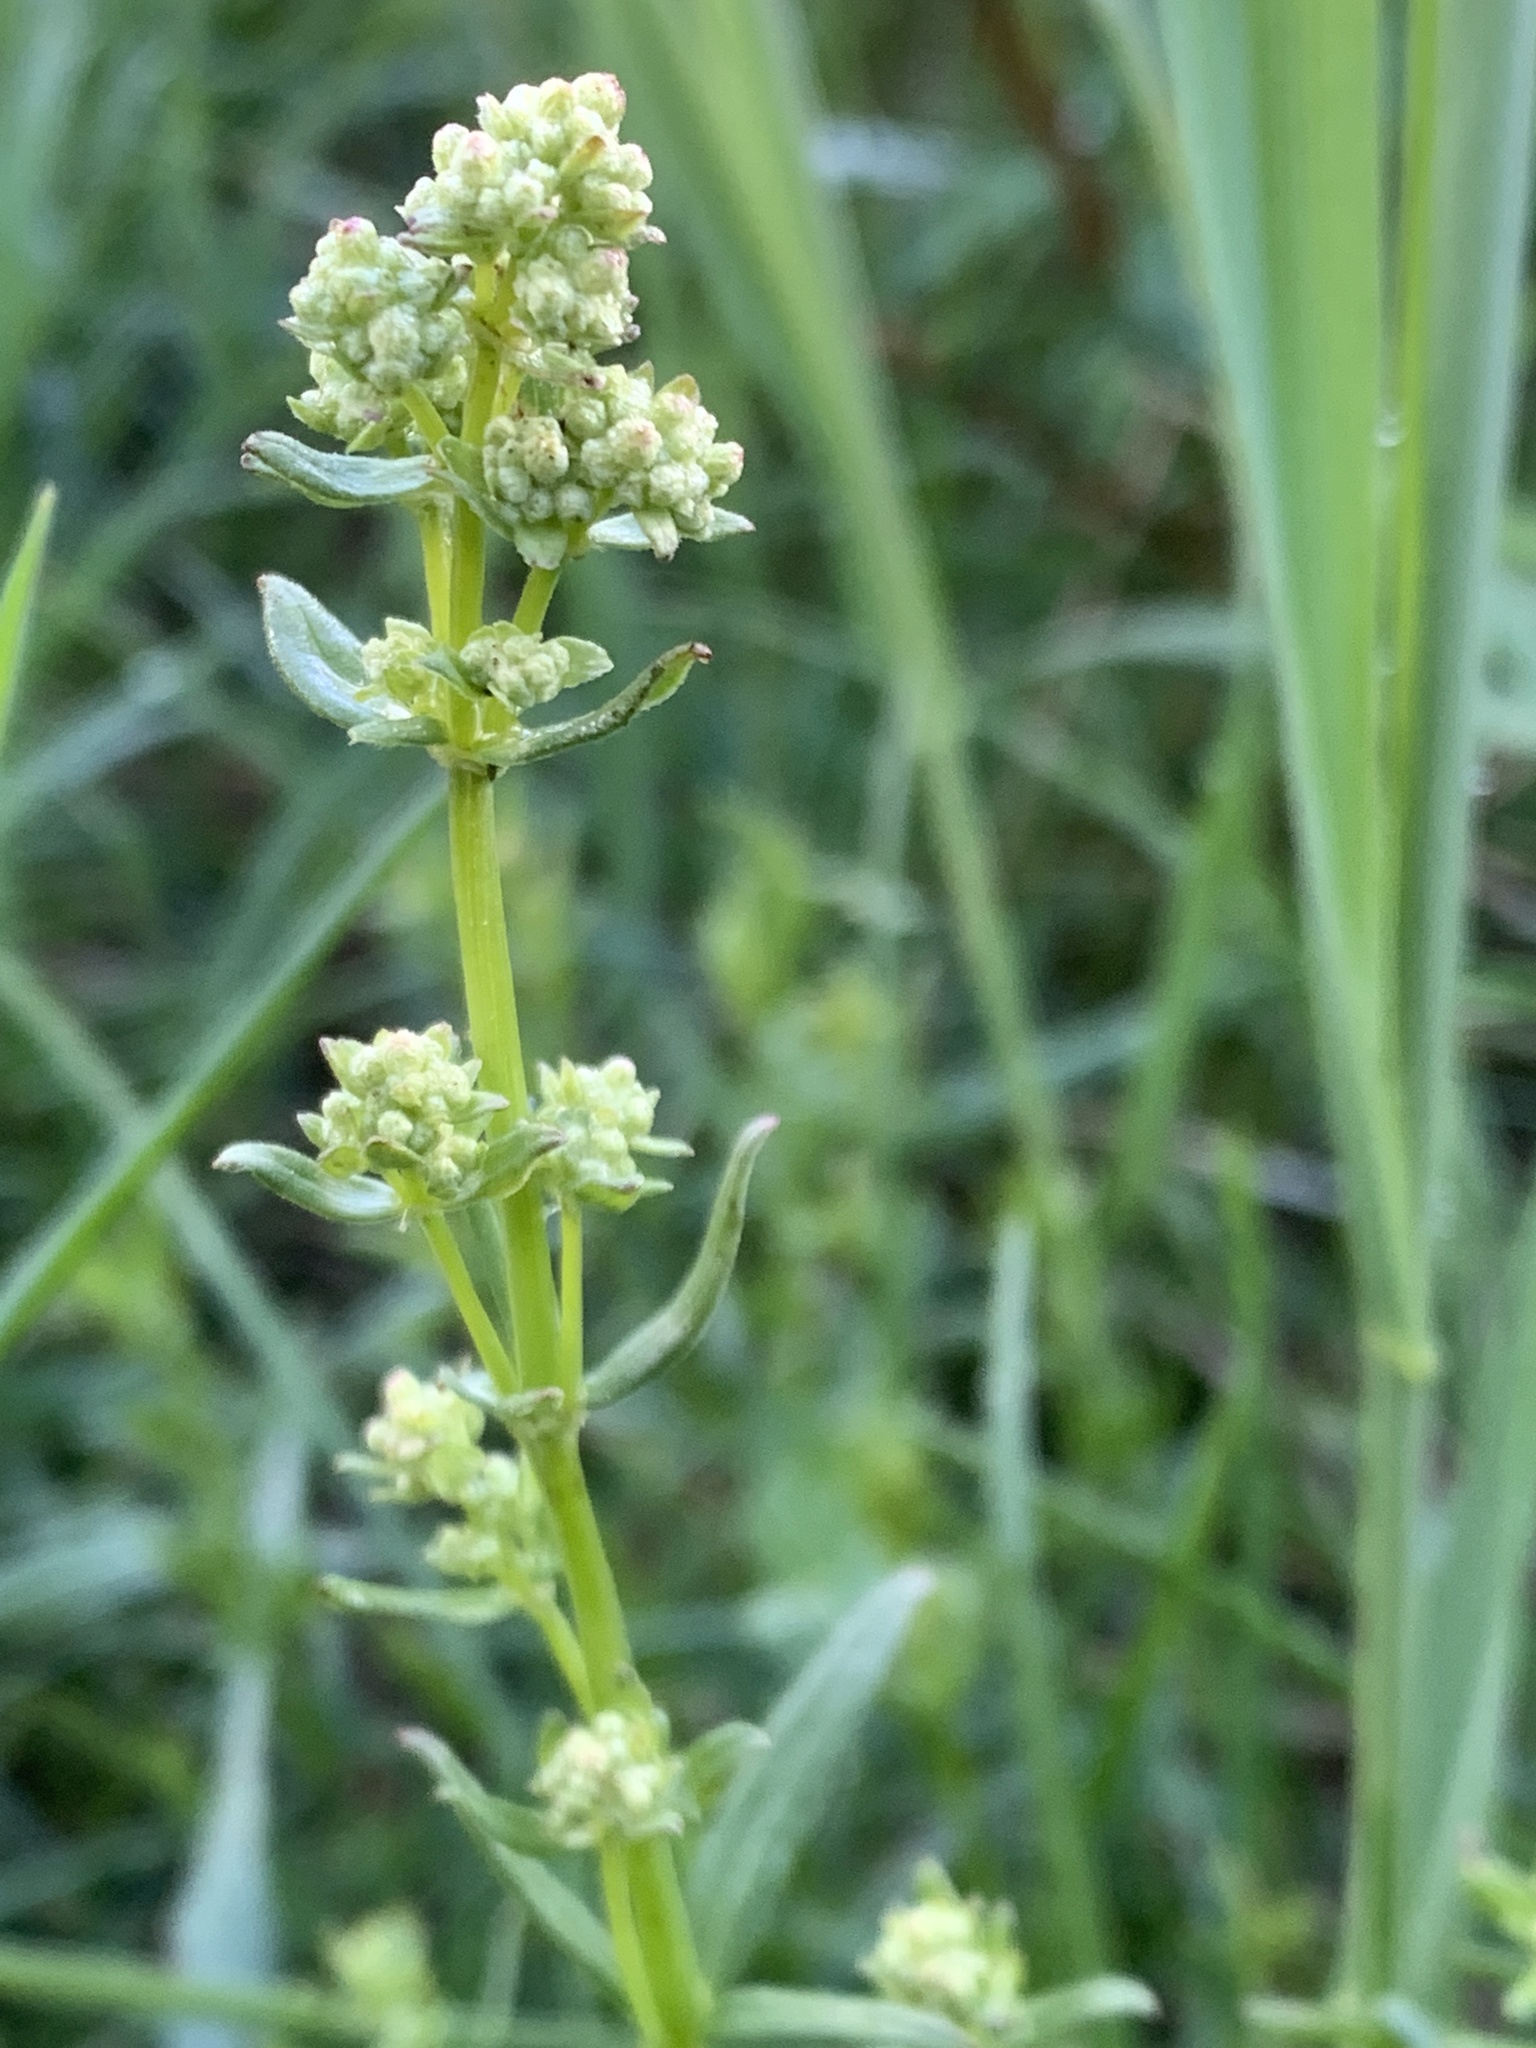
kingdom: Plantae
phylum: Tracheophyta
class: Magnoliopsida
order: Gentianales
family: Rubiaceae
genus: Galium
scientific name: Galium boreale
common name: Northern bedstraw
